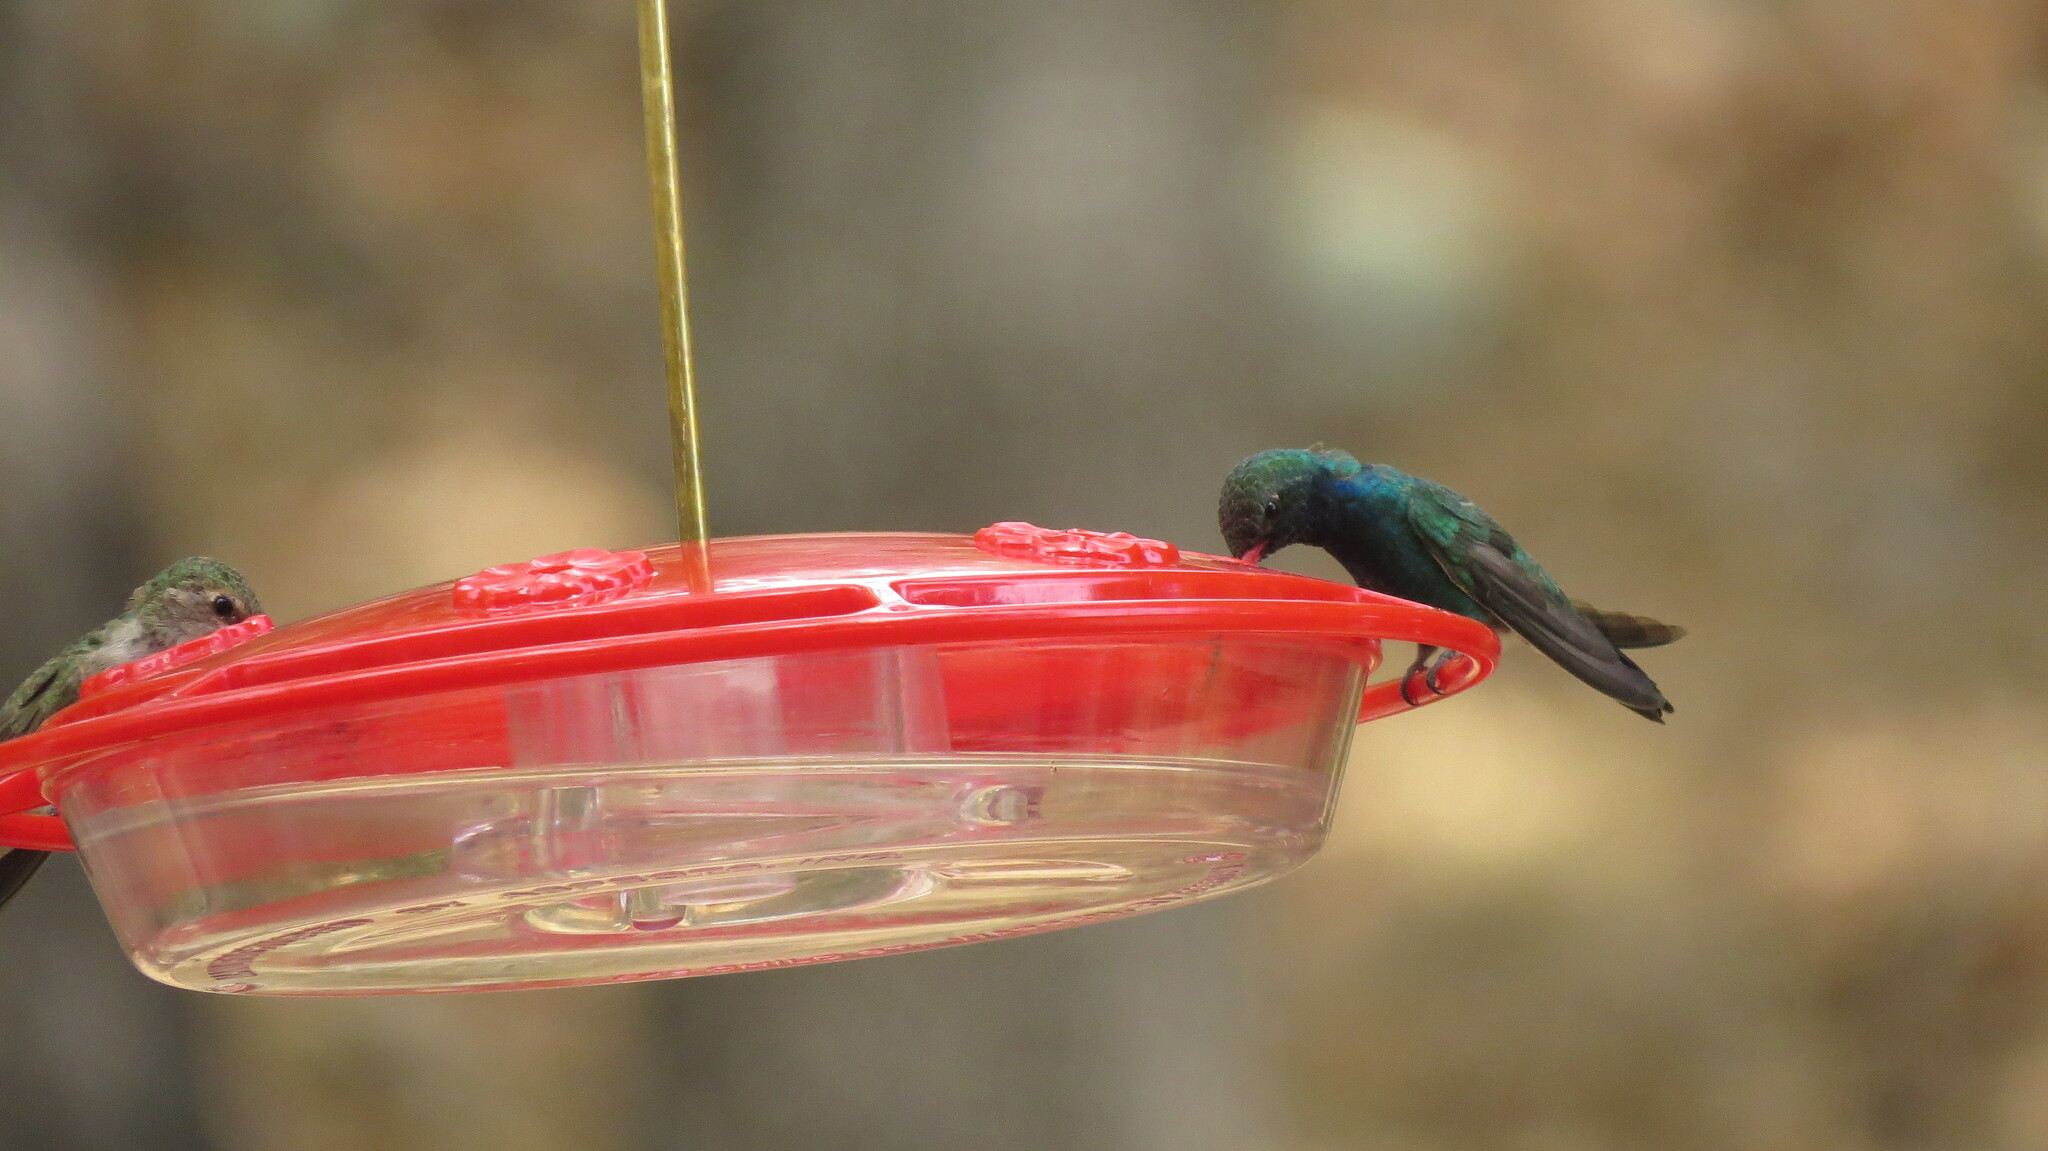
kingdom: Animalia
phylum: Chordata
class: Aves
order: Apodiformes
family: Trochilidae
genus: Cynanthus
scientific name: Cynanthus latirostris
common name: Broad-billed hummingbird
